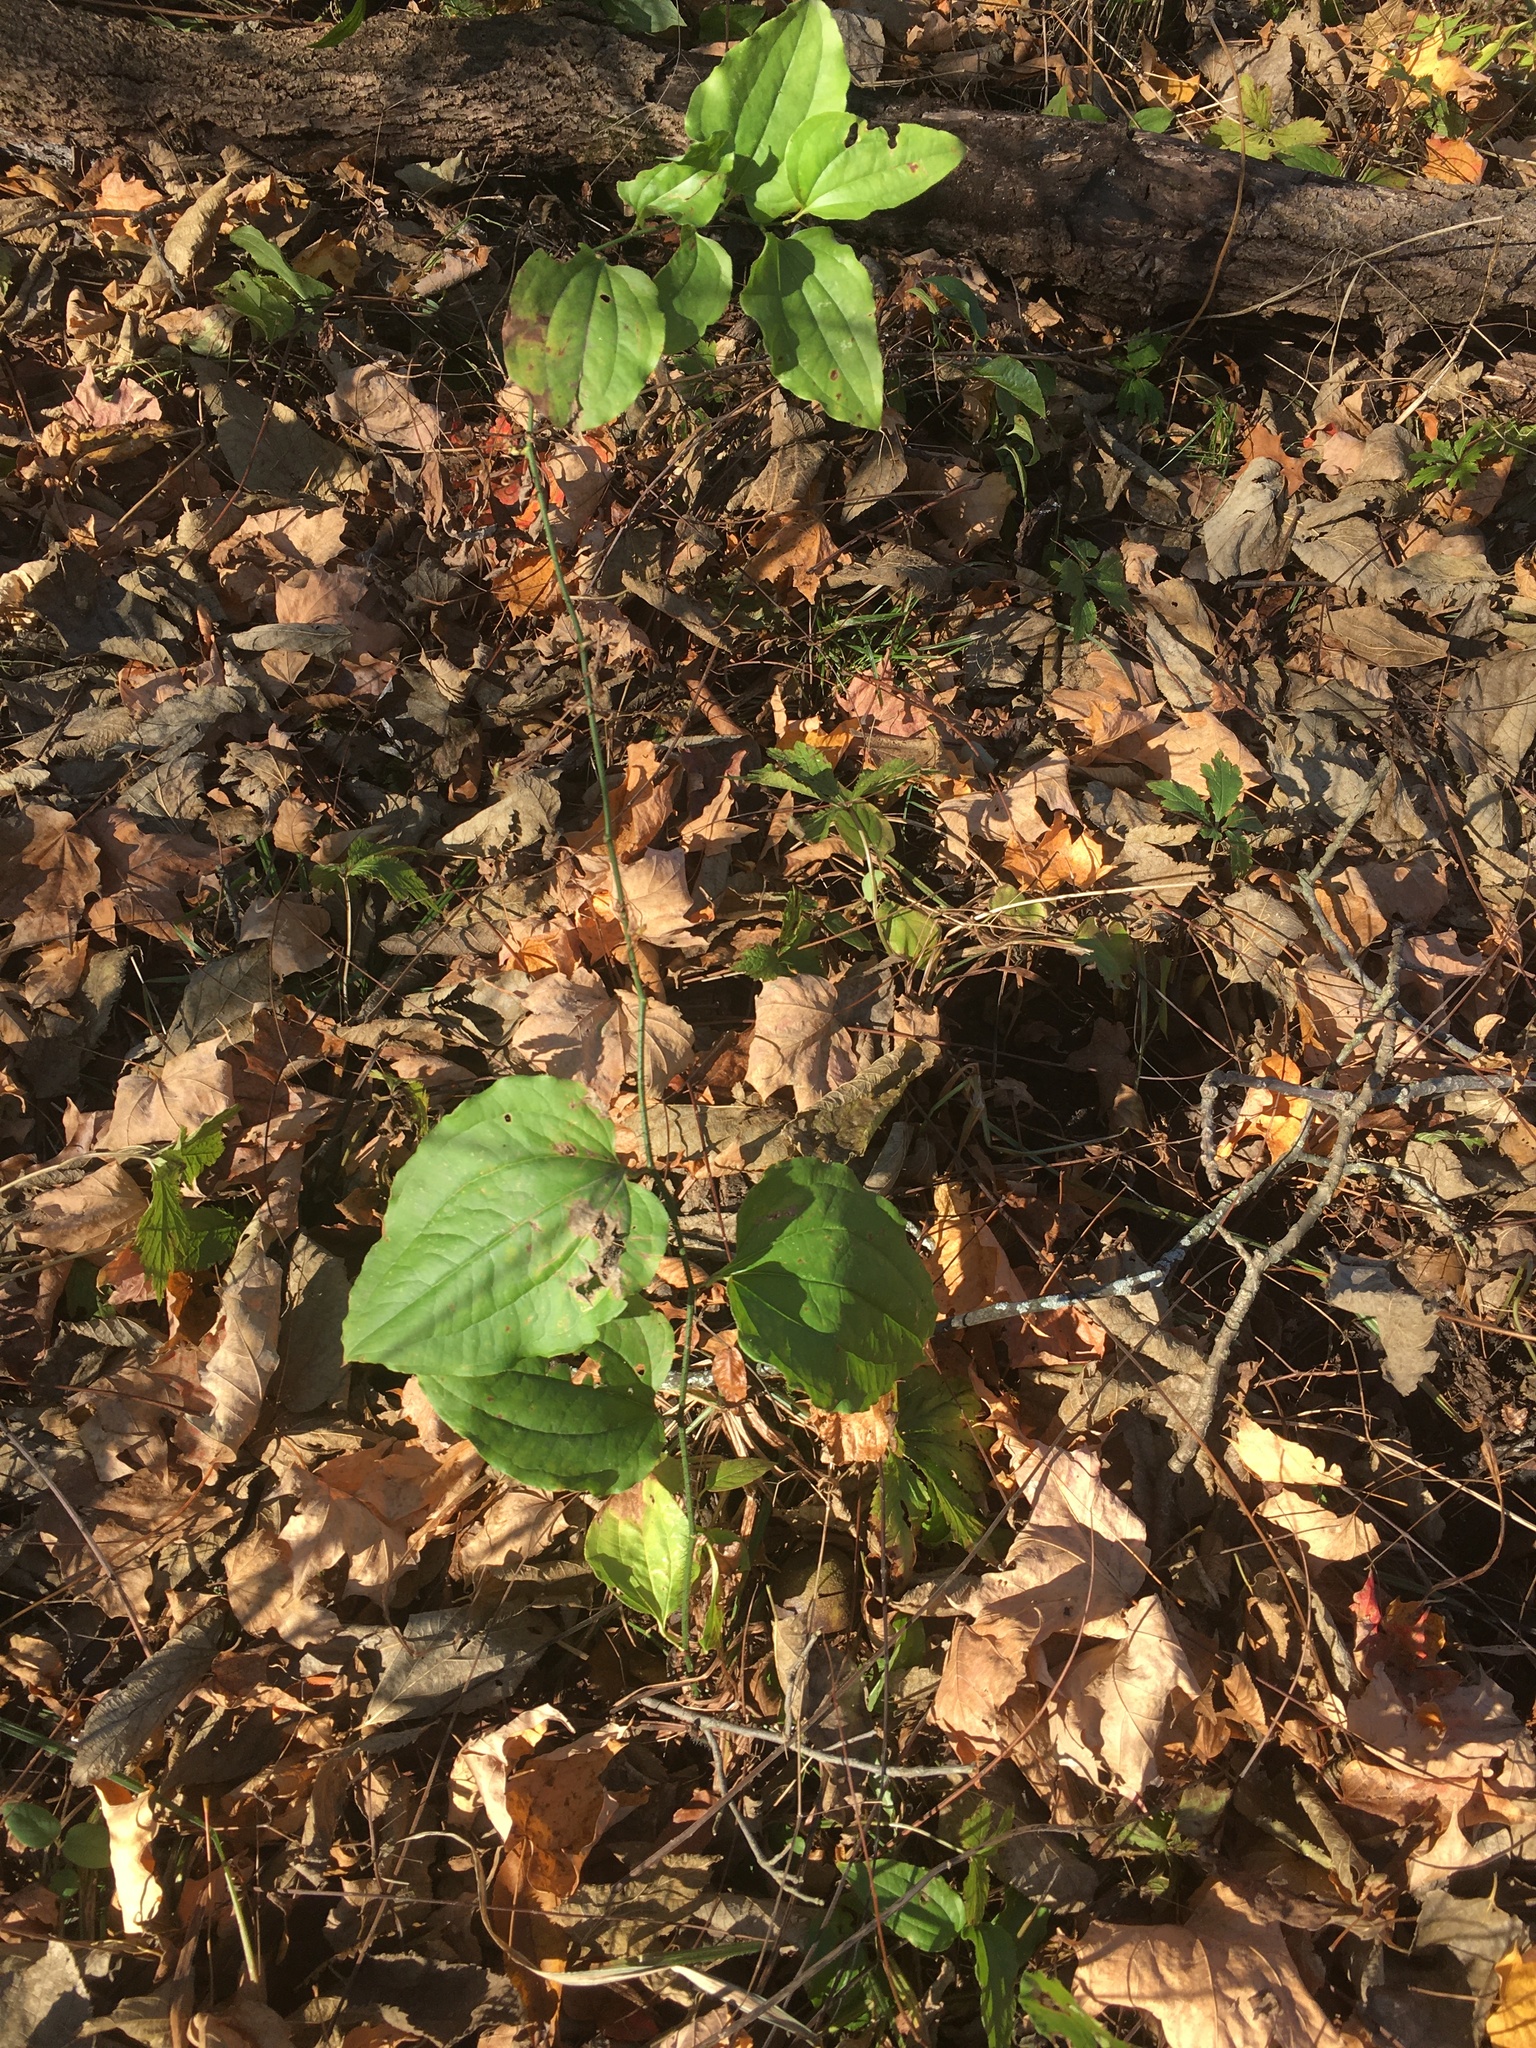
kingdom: Plantae
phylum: Tracheophyta
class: Liliopsida
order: Liliales
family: Smilacaceae
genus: Smilax
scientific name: Smilax tamnoides
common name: Hellfetter
